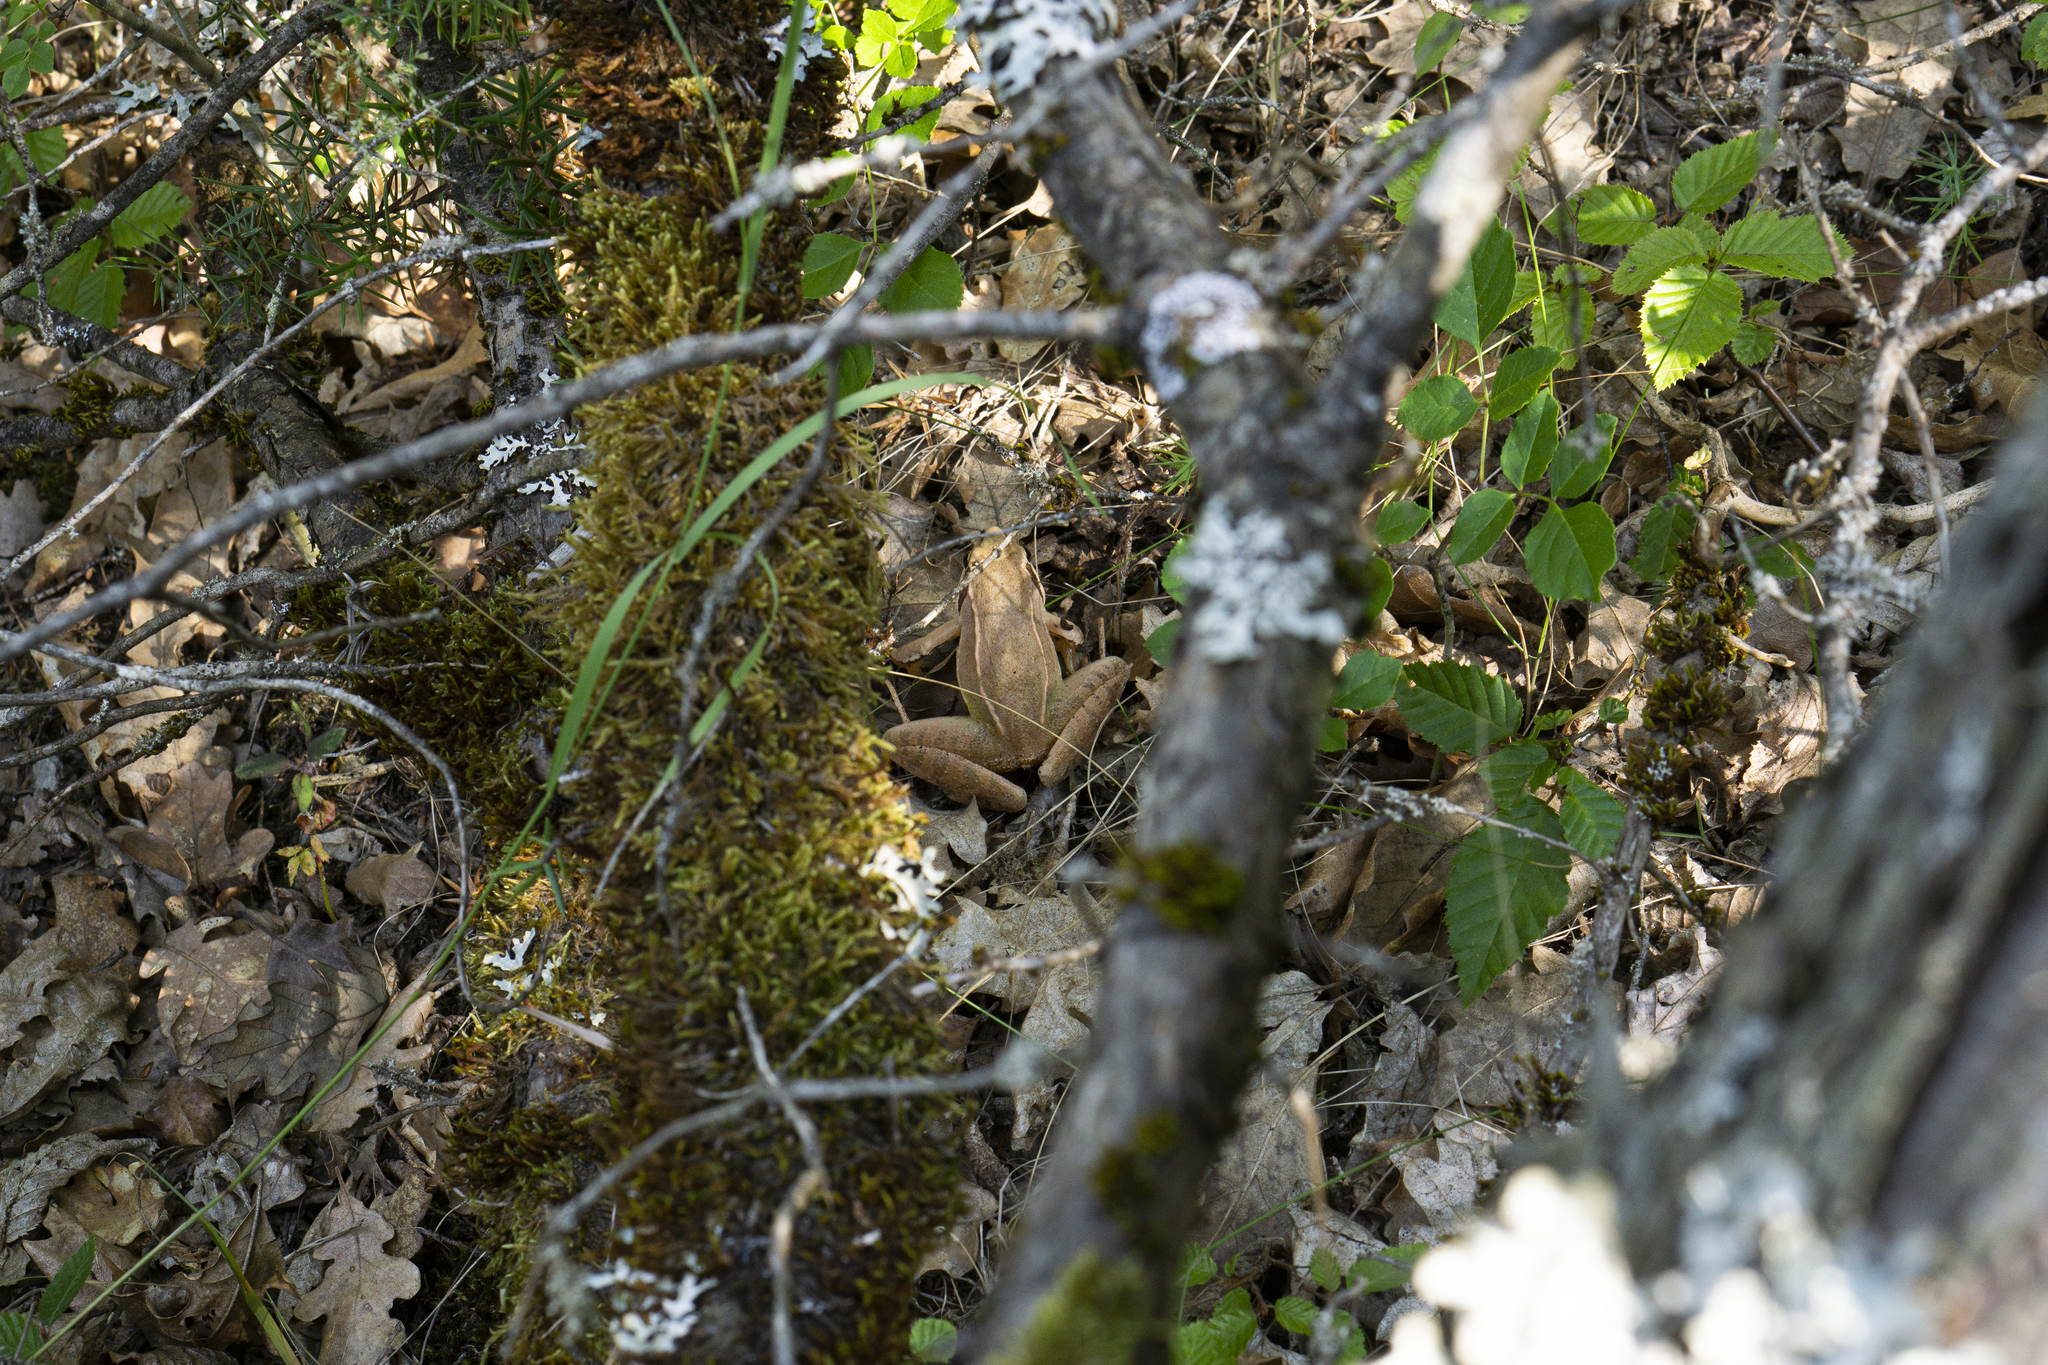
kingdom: Animalia
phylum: Chordata
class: Amphibia
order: Anura
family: Ranidae
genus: Rana
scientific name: Rana dalmatina
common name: Agile frog
